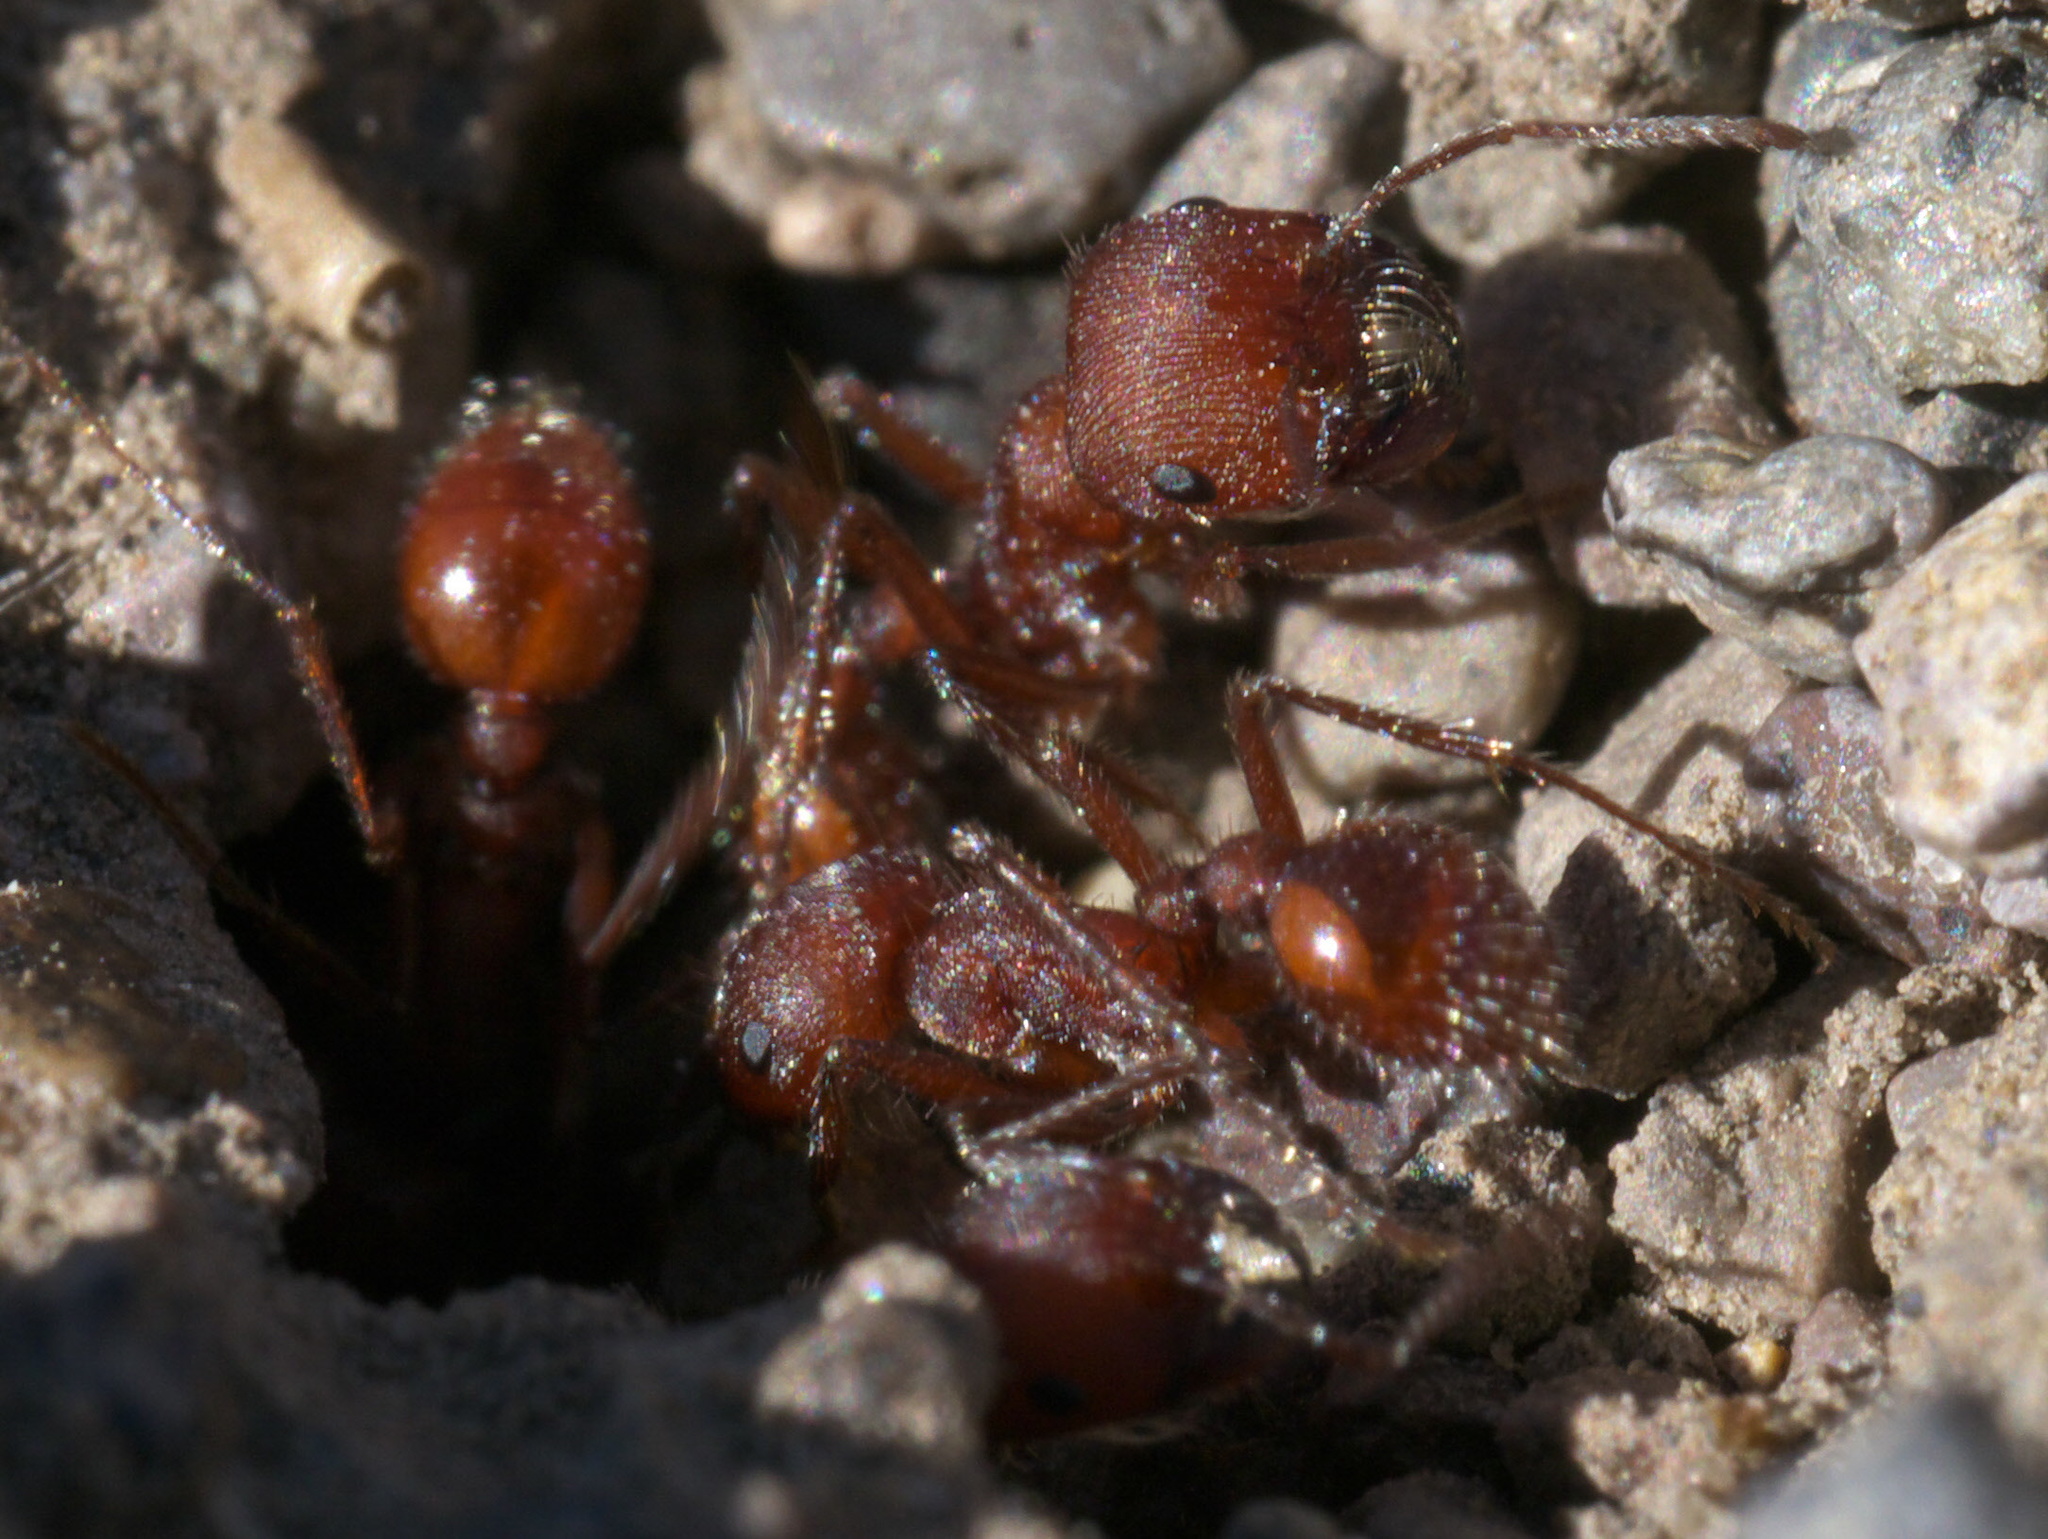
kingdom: Animalia
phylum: Arthropoda
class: Insecta
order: Hymenoptera
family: Formicidae
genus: Pogonomyrmex
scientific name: Pogonomyrmex occidentalis
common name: Western harvester ant
